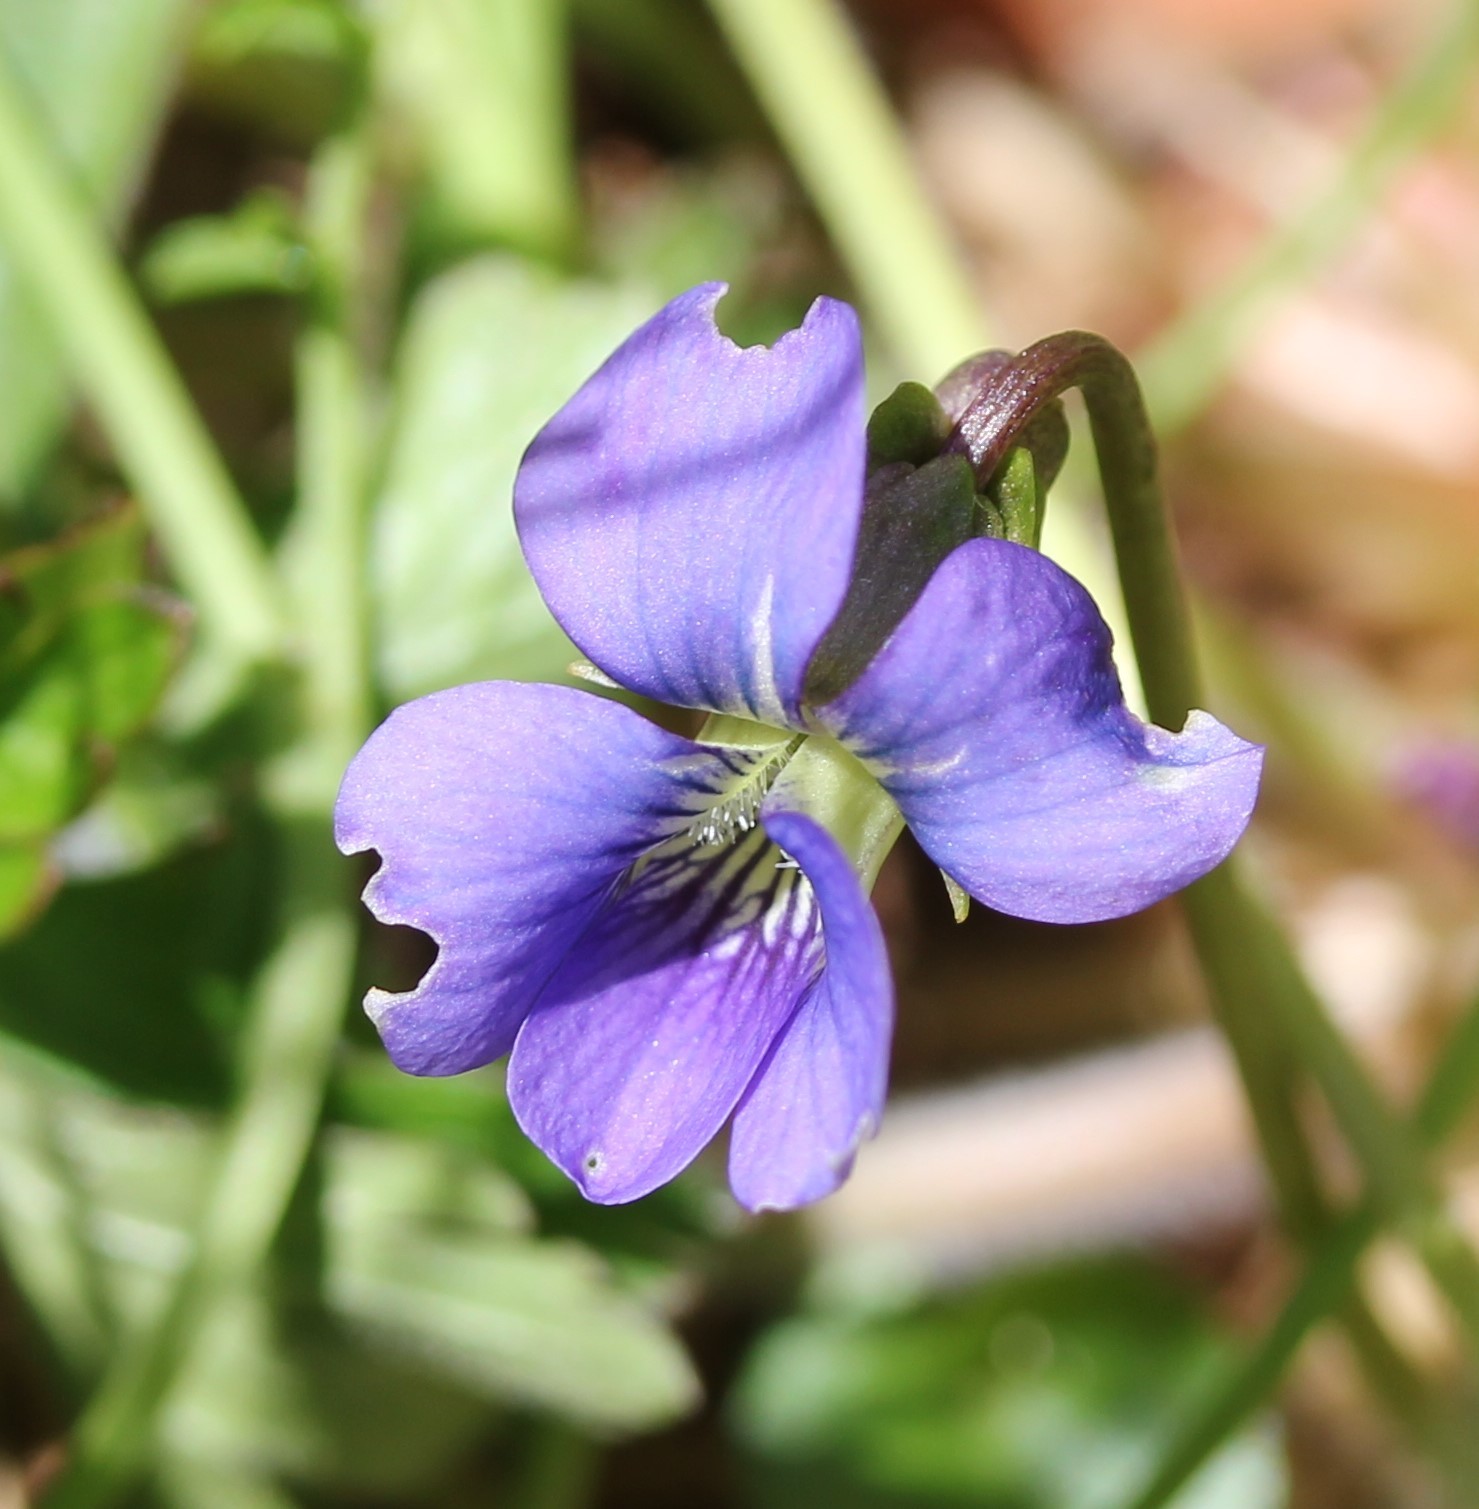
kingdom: Plantae
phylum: Tracheophyta
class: Magnoliopsida
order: Malpighiales
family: Violaceae
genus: Viola
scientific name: Viola sororia
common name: Dooryard violet
